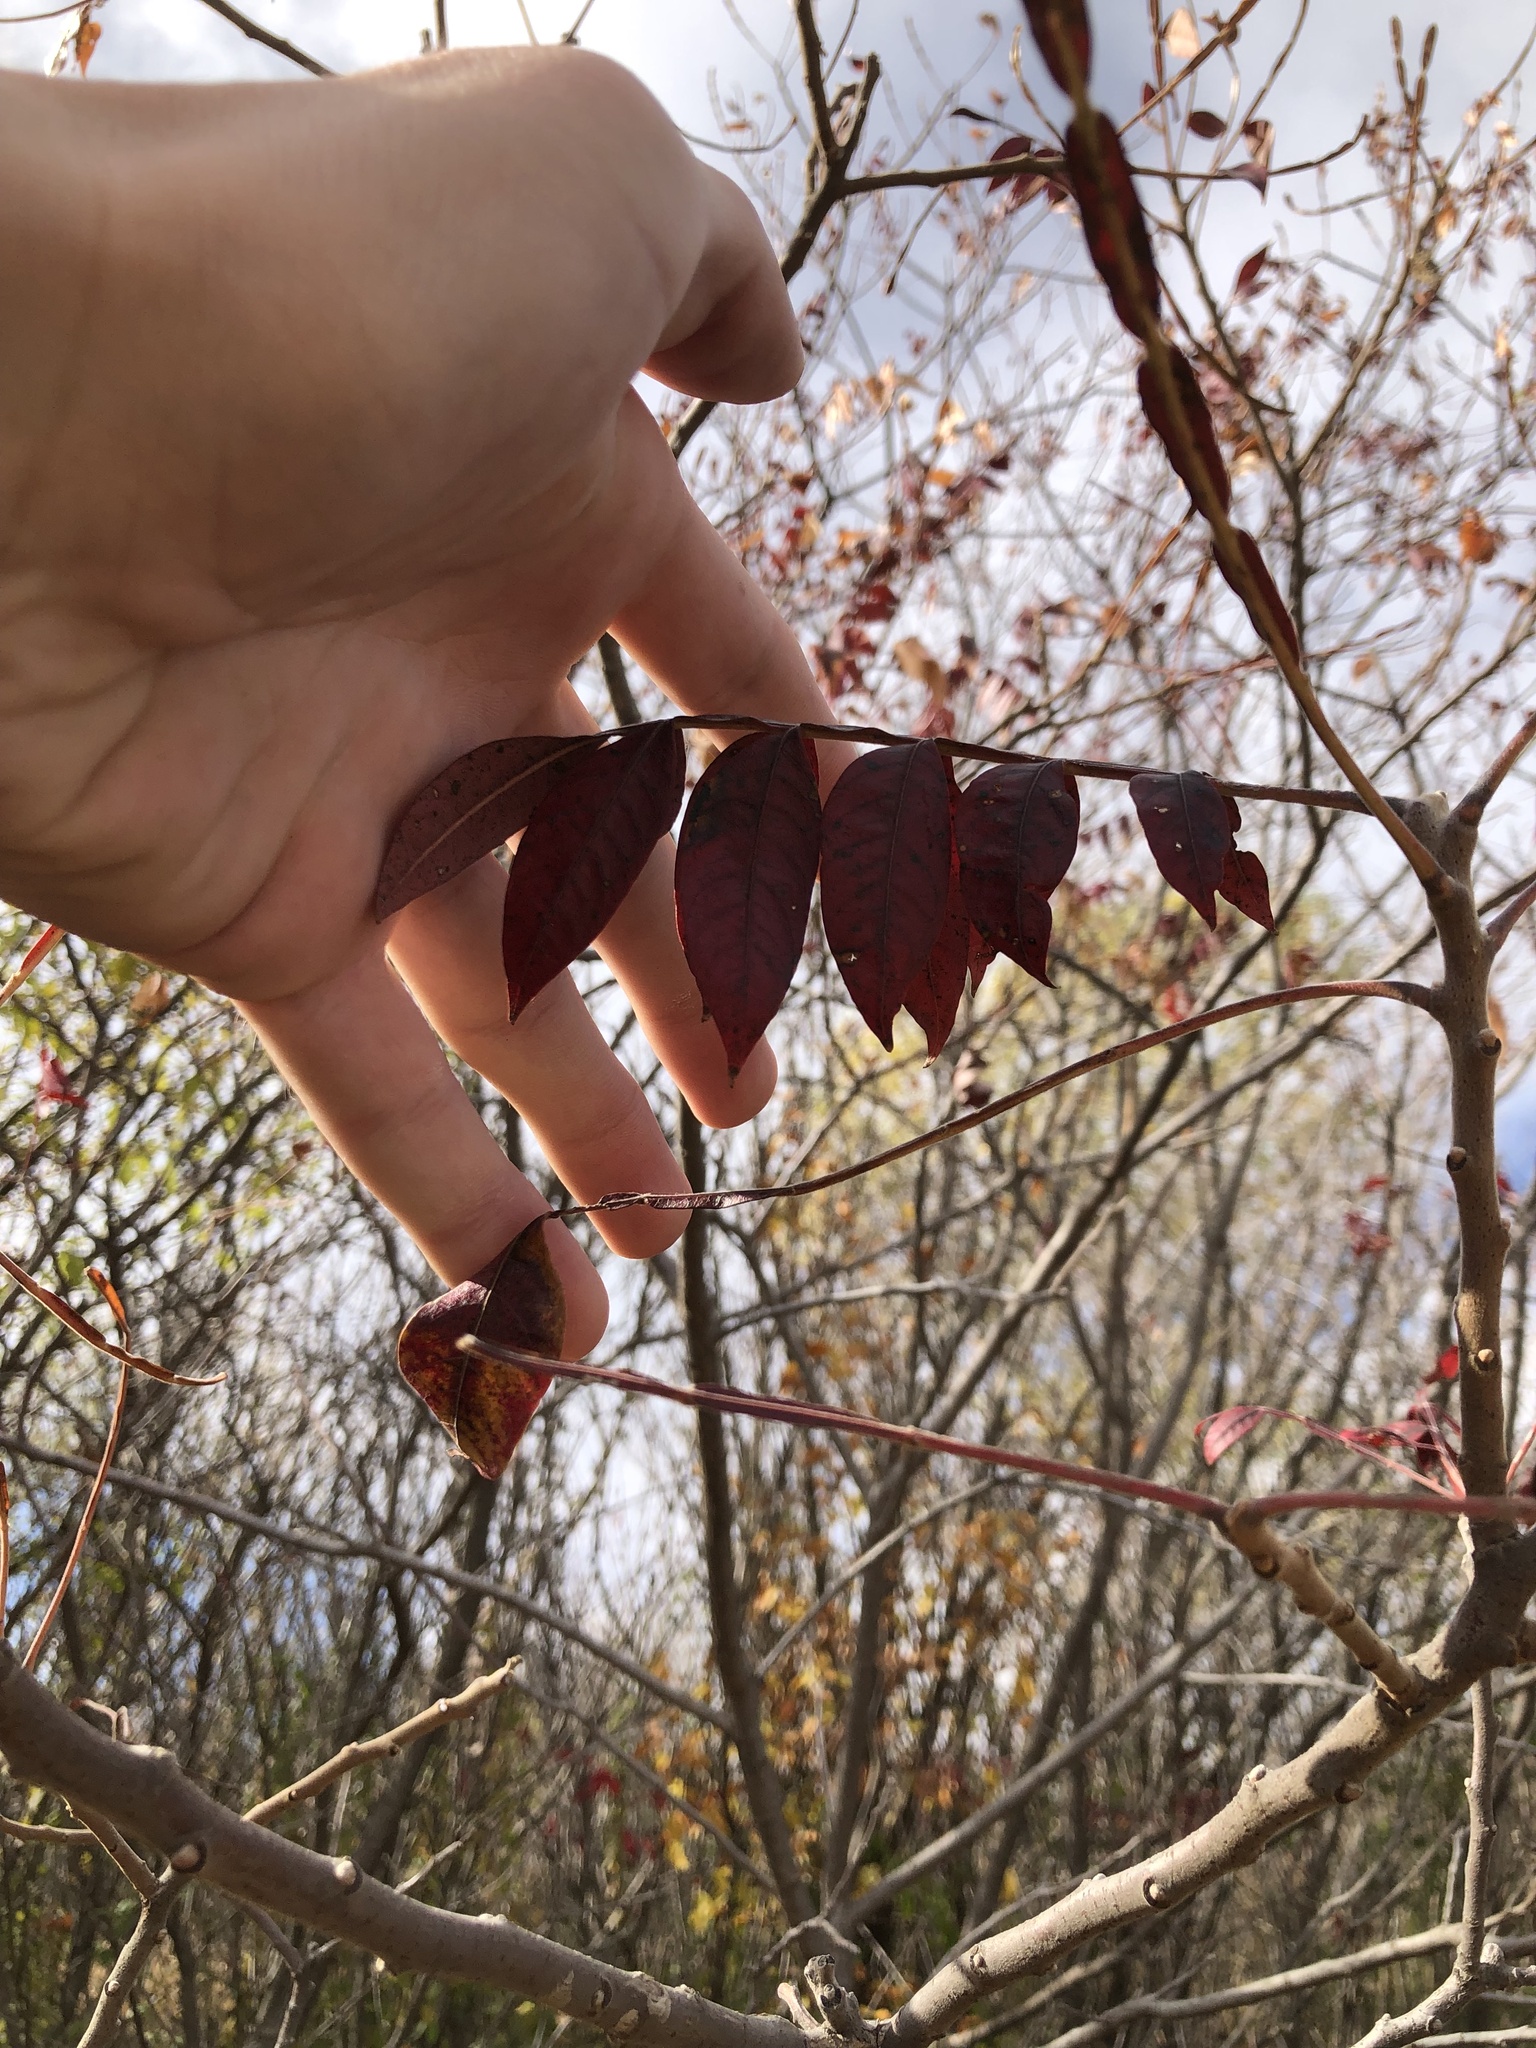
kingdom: Plantae
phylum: Tracheophyta
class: Magnoliopsida
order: Sapindales
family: Anacardiaceae
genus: Rhus
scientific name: Rhus copallina
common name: Shining sumac
